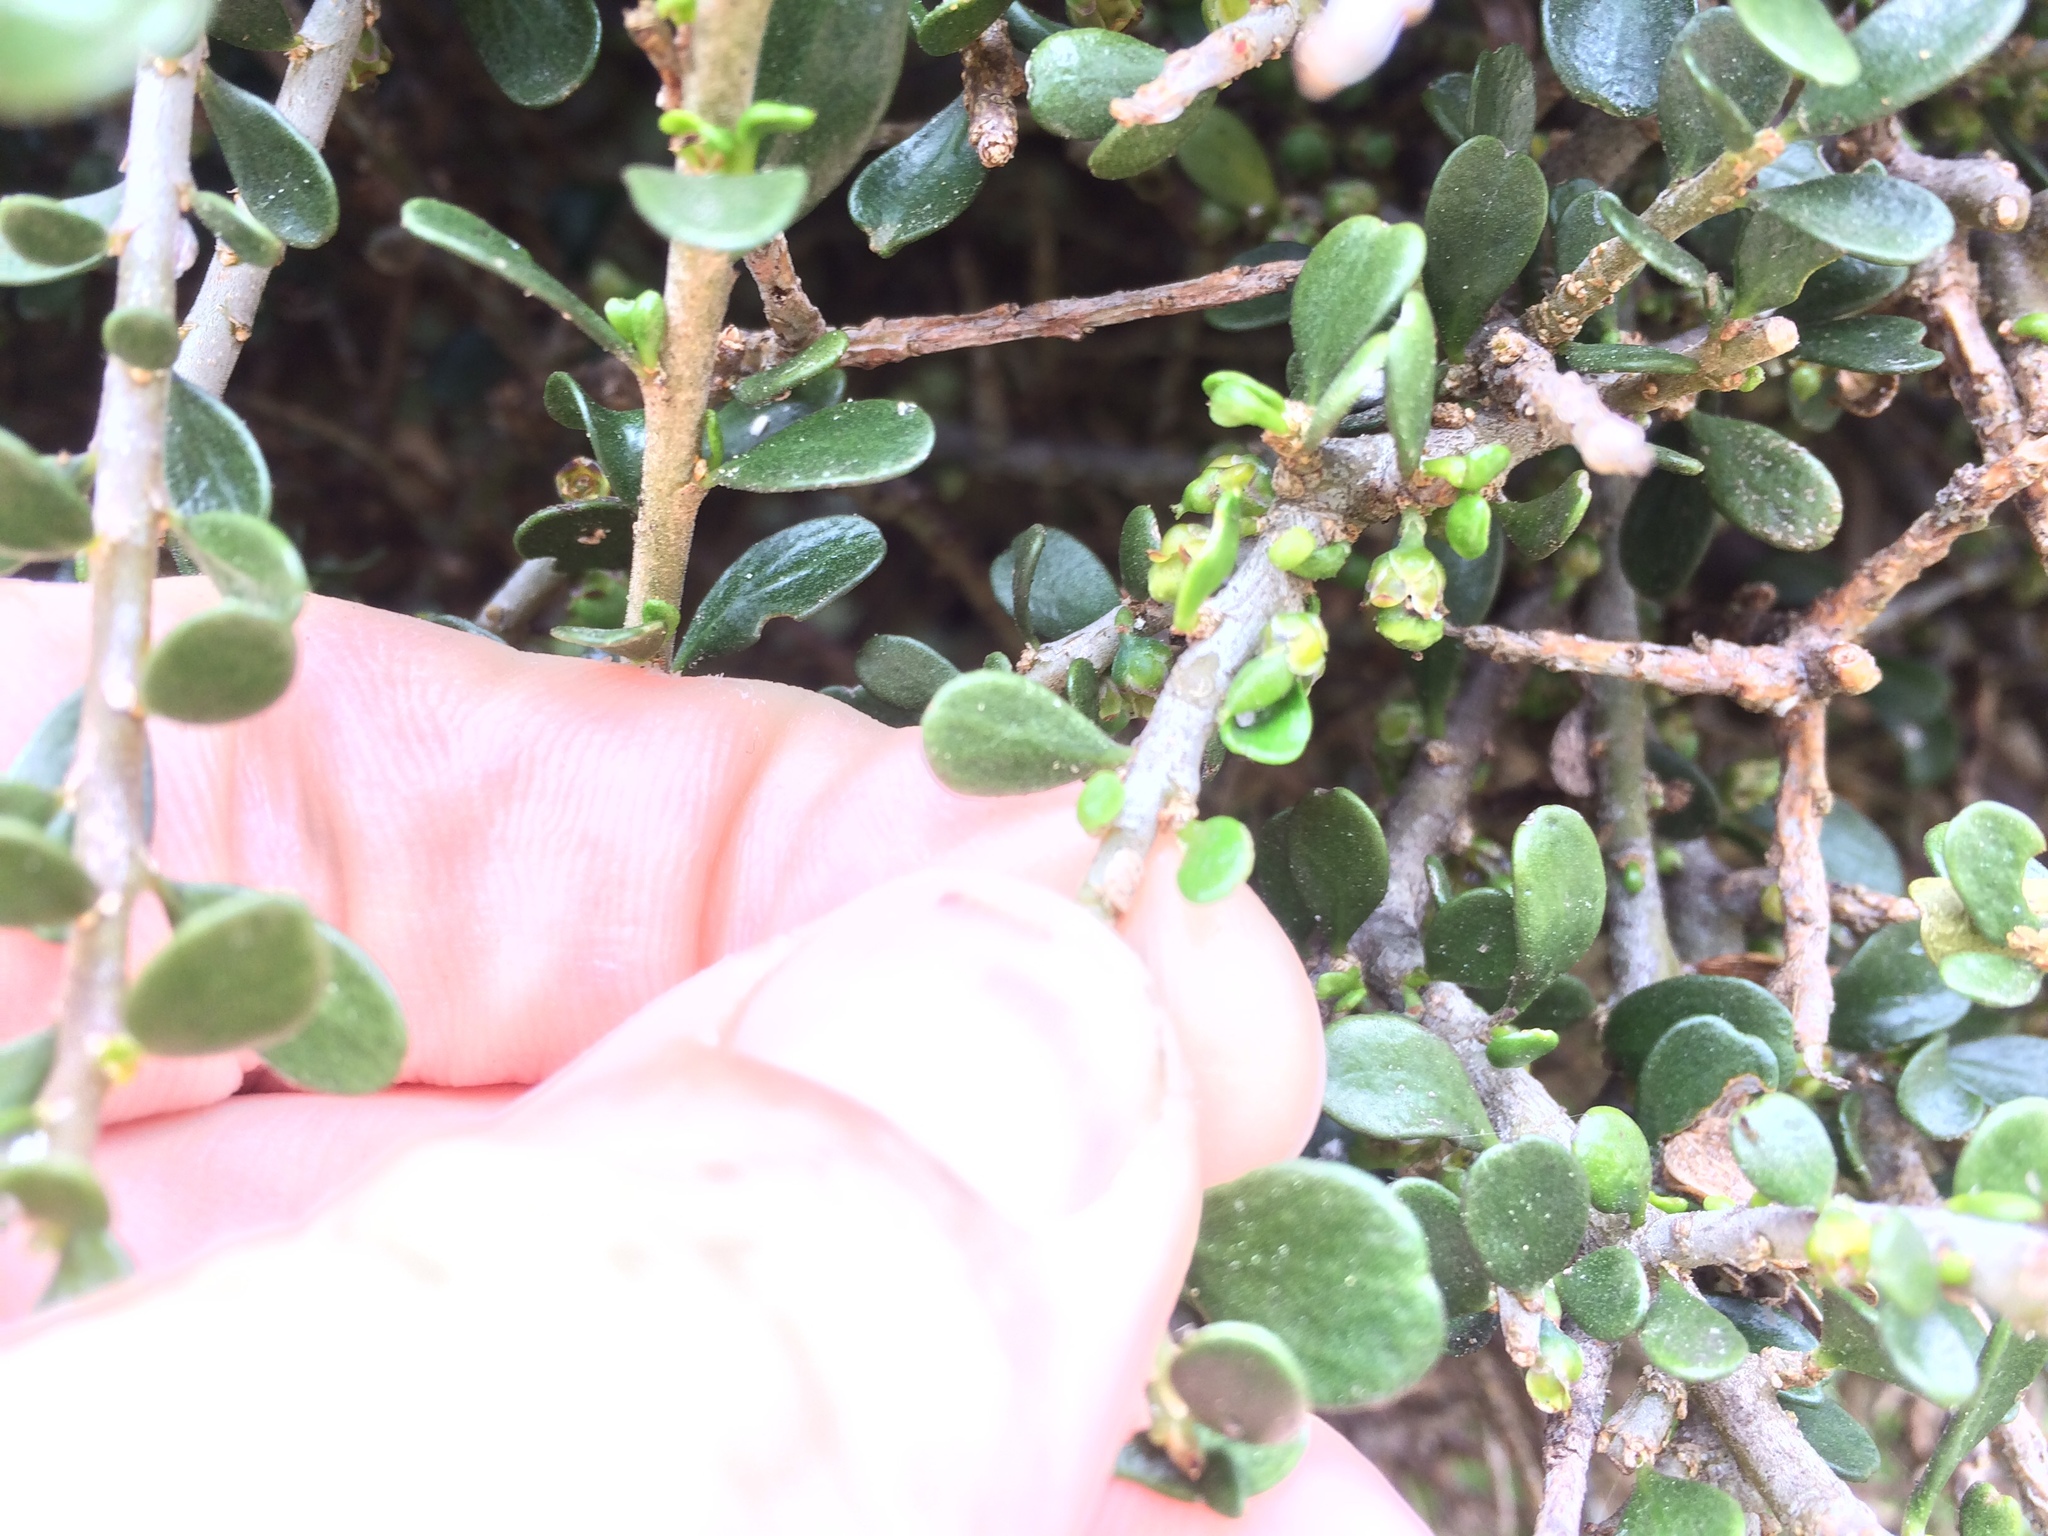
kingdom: Plantae
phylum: Tracheophyta
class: Magnoliopsida
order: Malpighiales
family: Violaceae
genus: Melicytus
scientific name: Melicytus crassifolius
